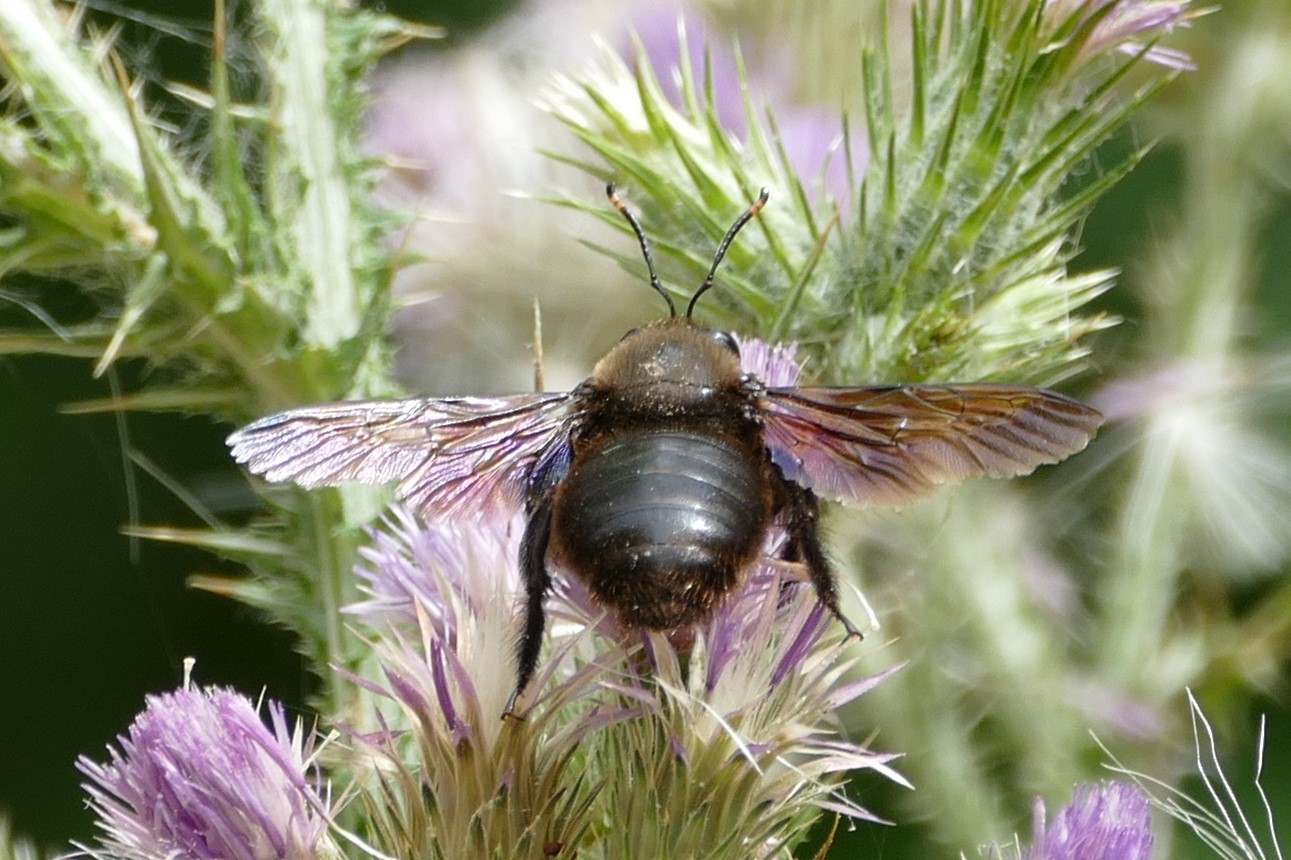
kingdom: Animalia
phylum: Arthropoda
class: Insecta
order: Hymenoptera
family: Apidae
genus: Xylocopa
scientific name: Xylocopa violacea
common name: Violet carpenter bee
